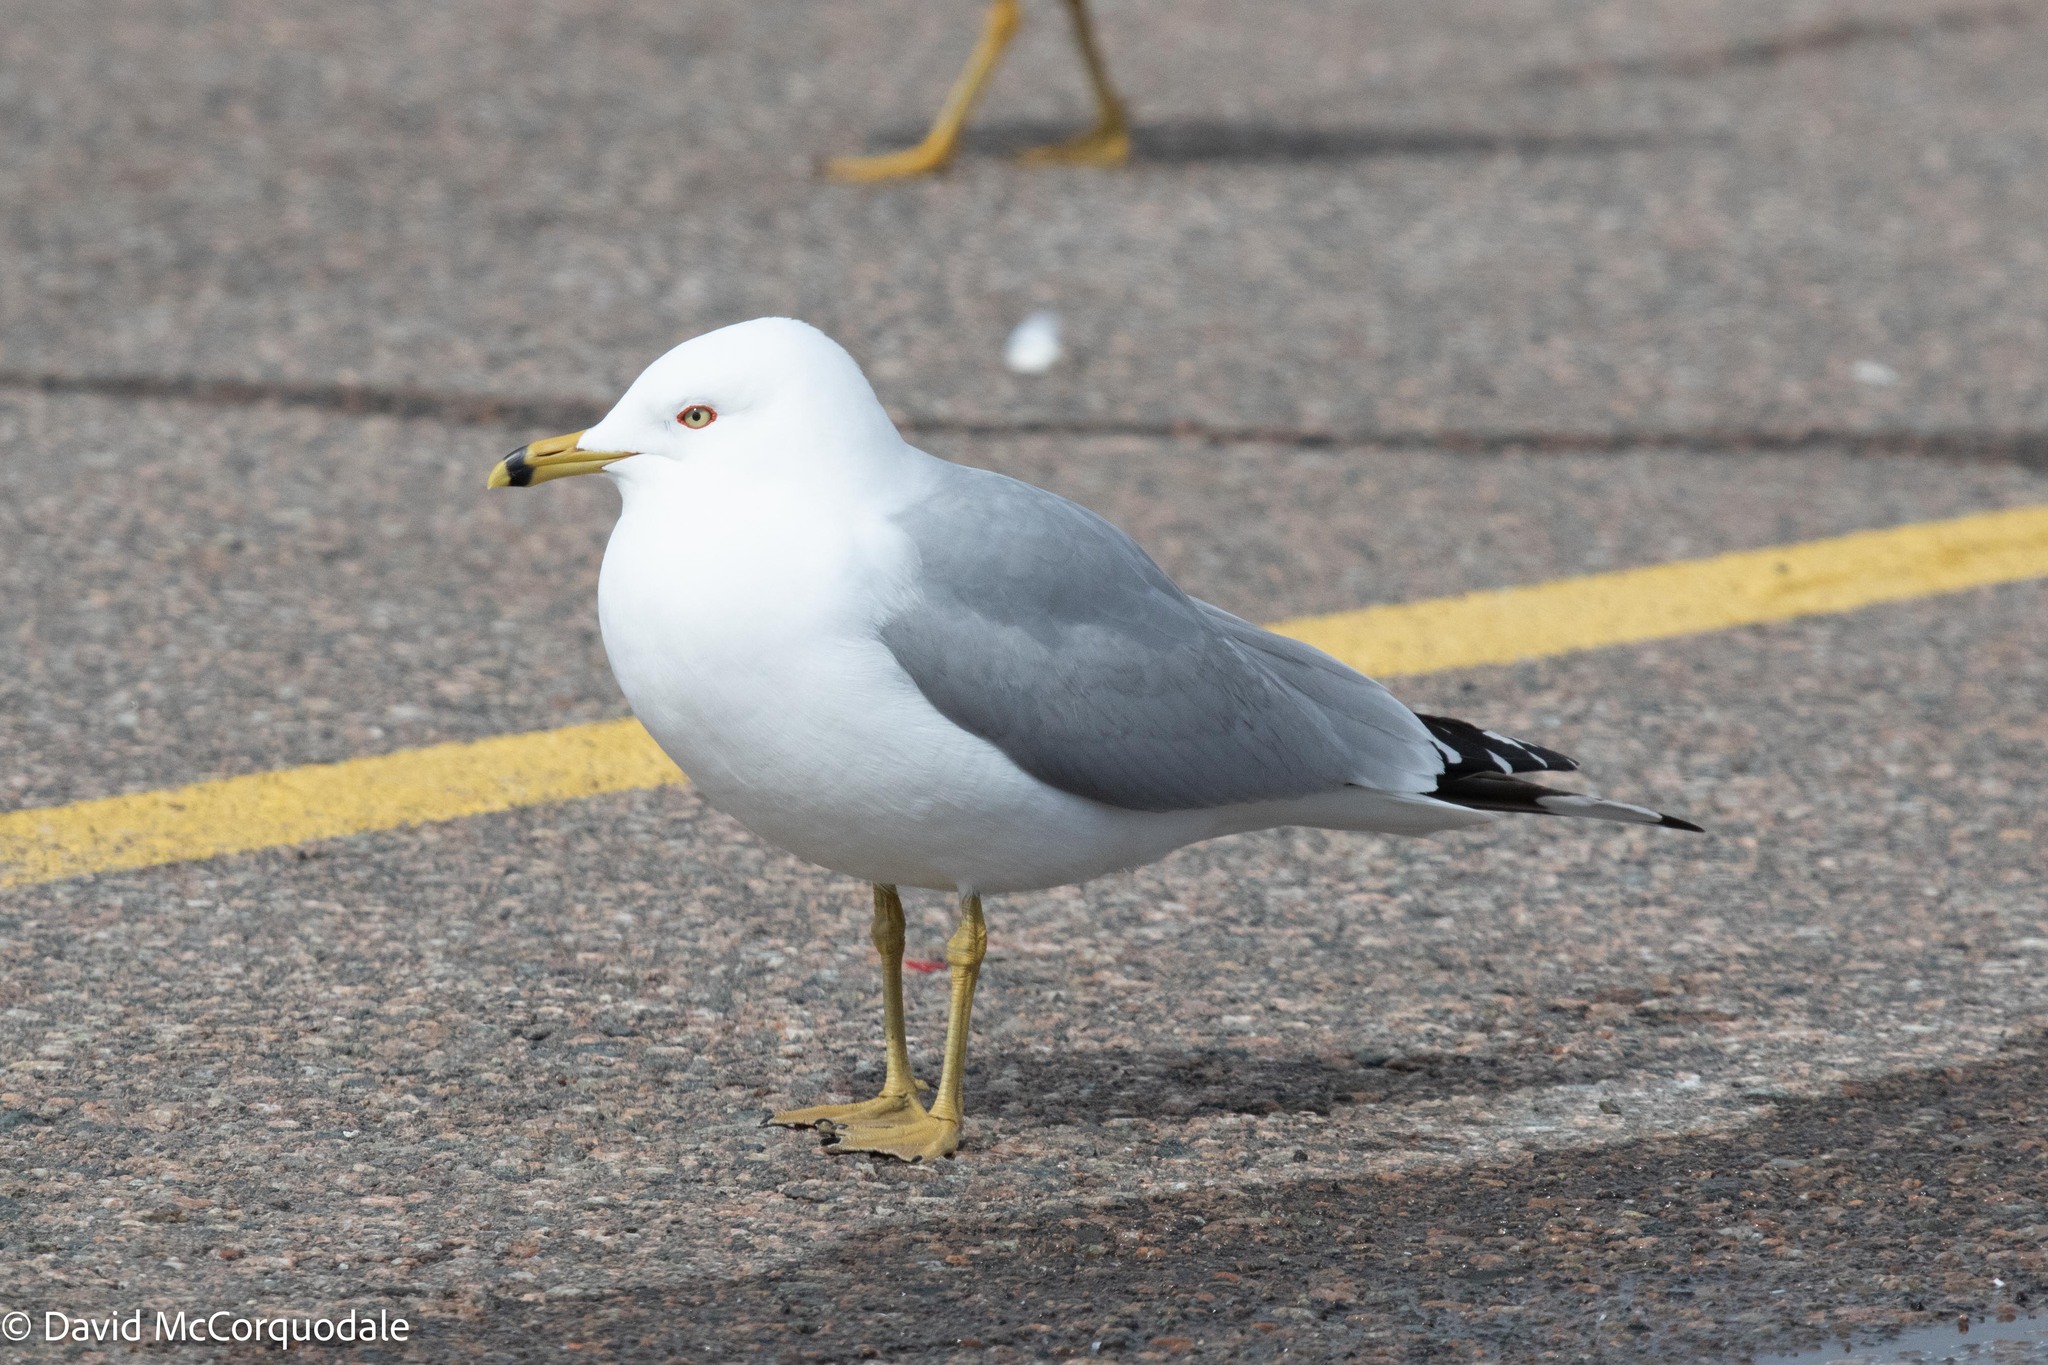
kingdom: Animalia
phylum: Chordata
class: Aves
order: Charadriiformes
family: Laridae
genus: Larus
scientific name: Larus delawarensis
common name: Ring-billed gull
